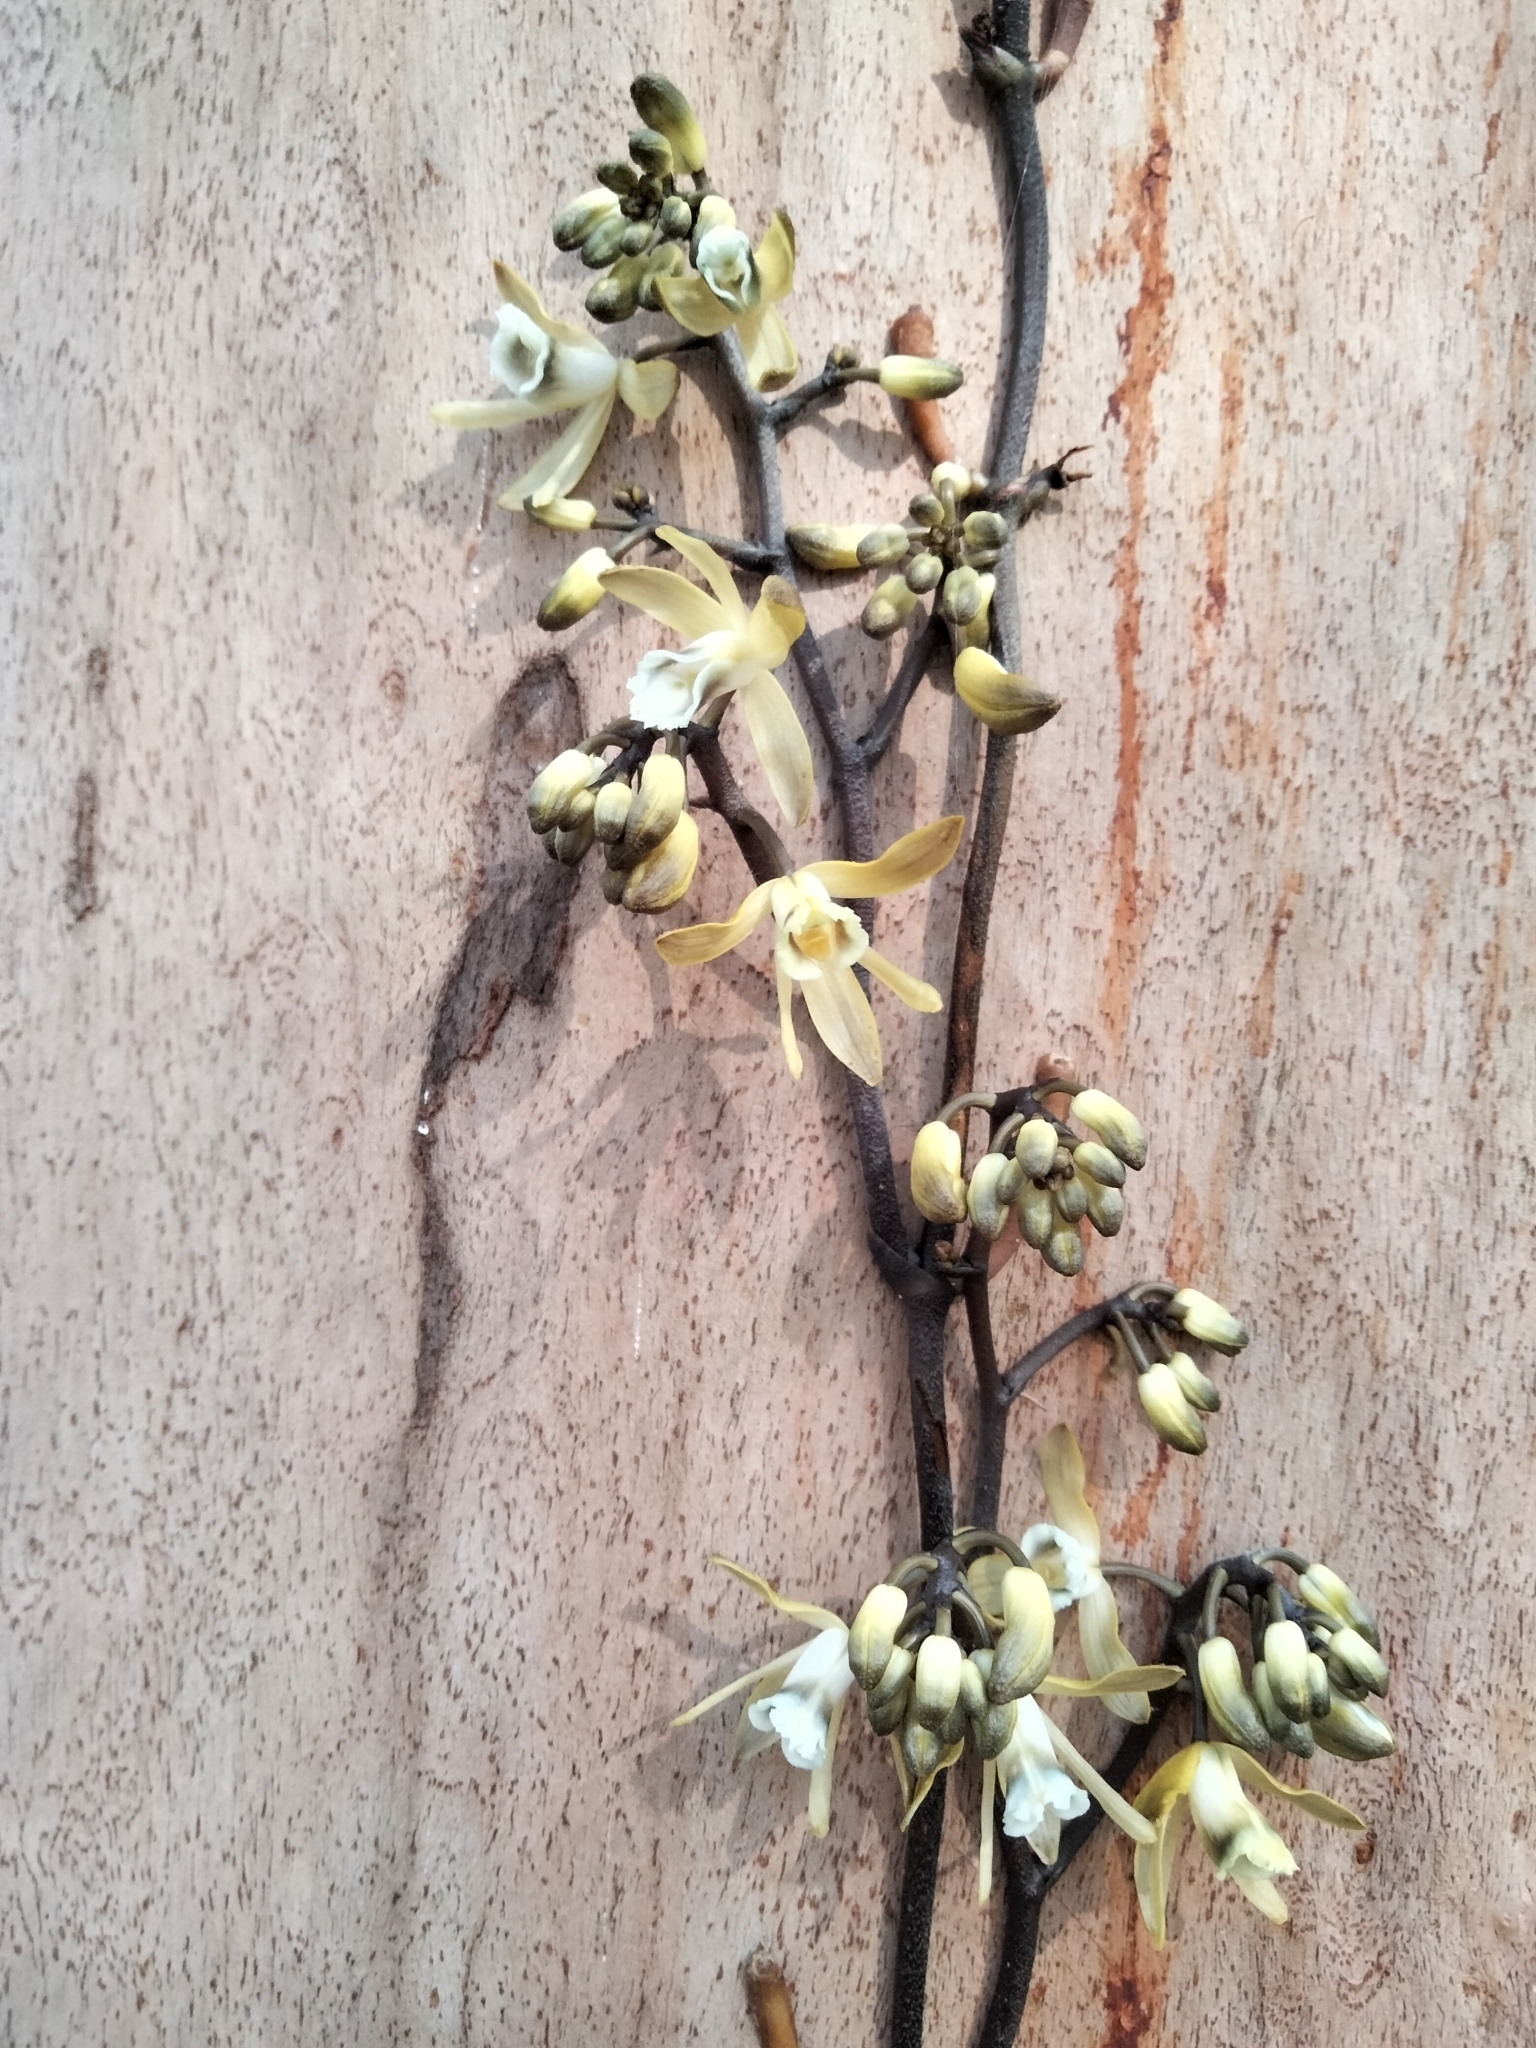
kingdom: Plantae
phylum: Tracheophyta
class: Liliopsida
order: Asparagales
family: Orchidaceae
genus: Erythrorchis
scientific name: Erythrorchis cassythoides
